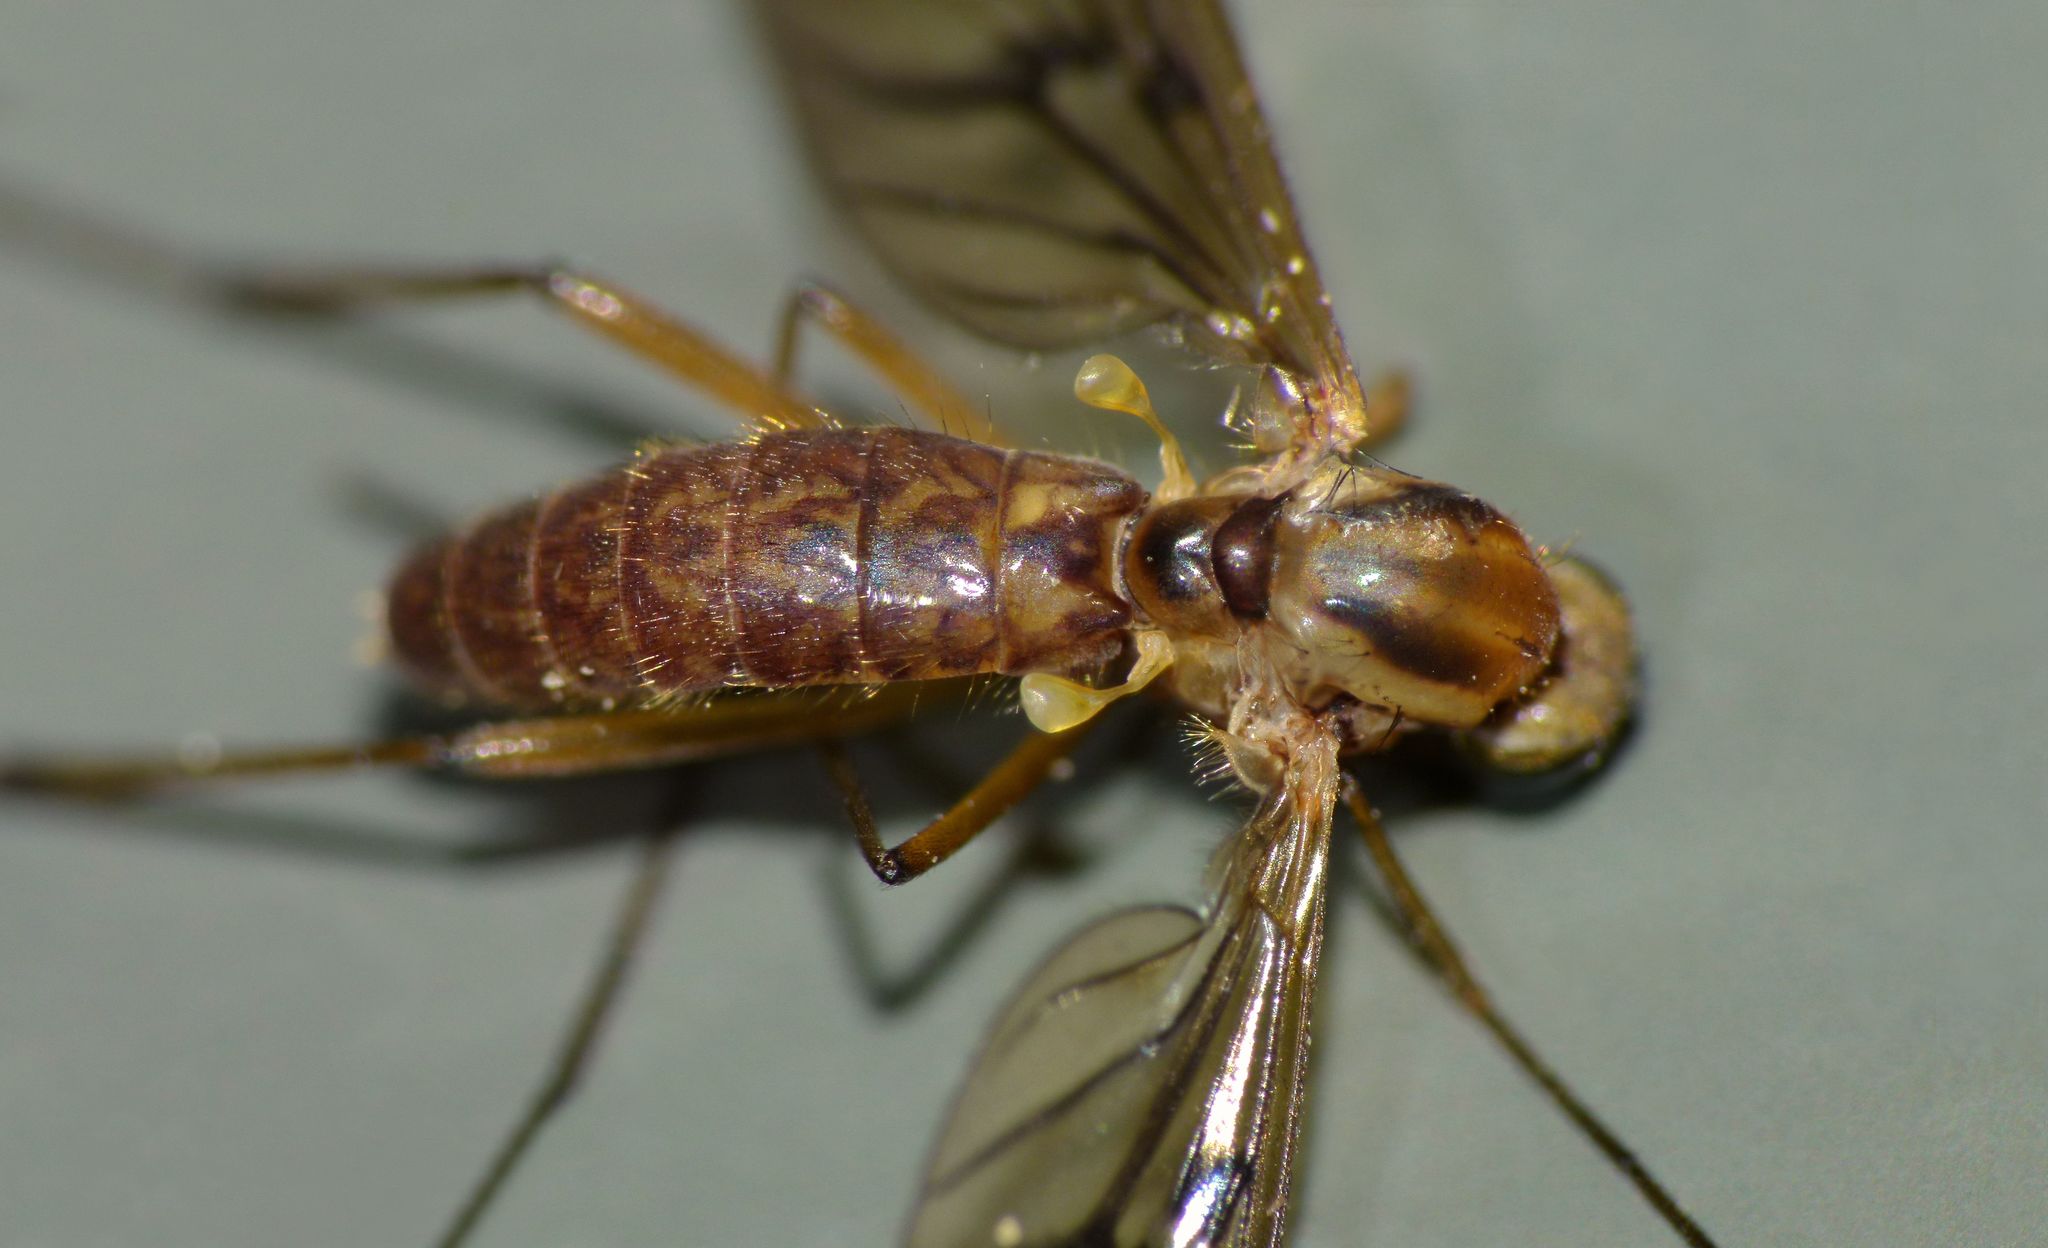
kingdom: Animalia
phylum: Arthropoda
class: Insecta
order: Diptera
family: Anisopodidae
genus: Sylvicola
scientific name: Sylvicola notatus
